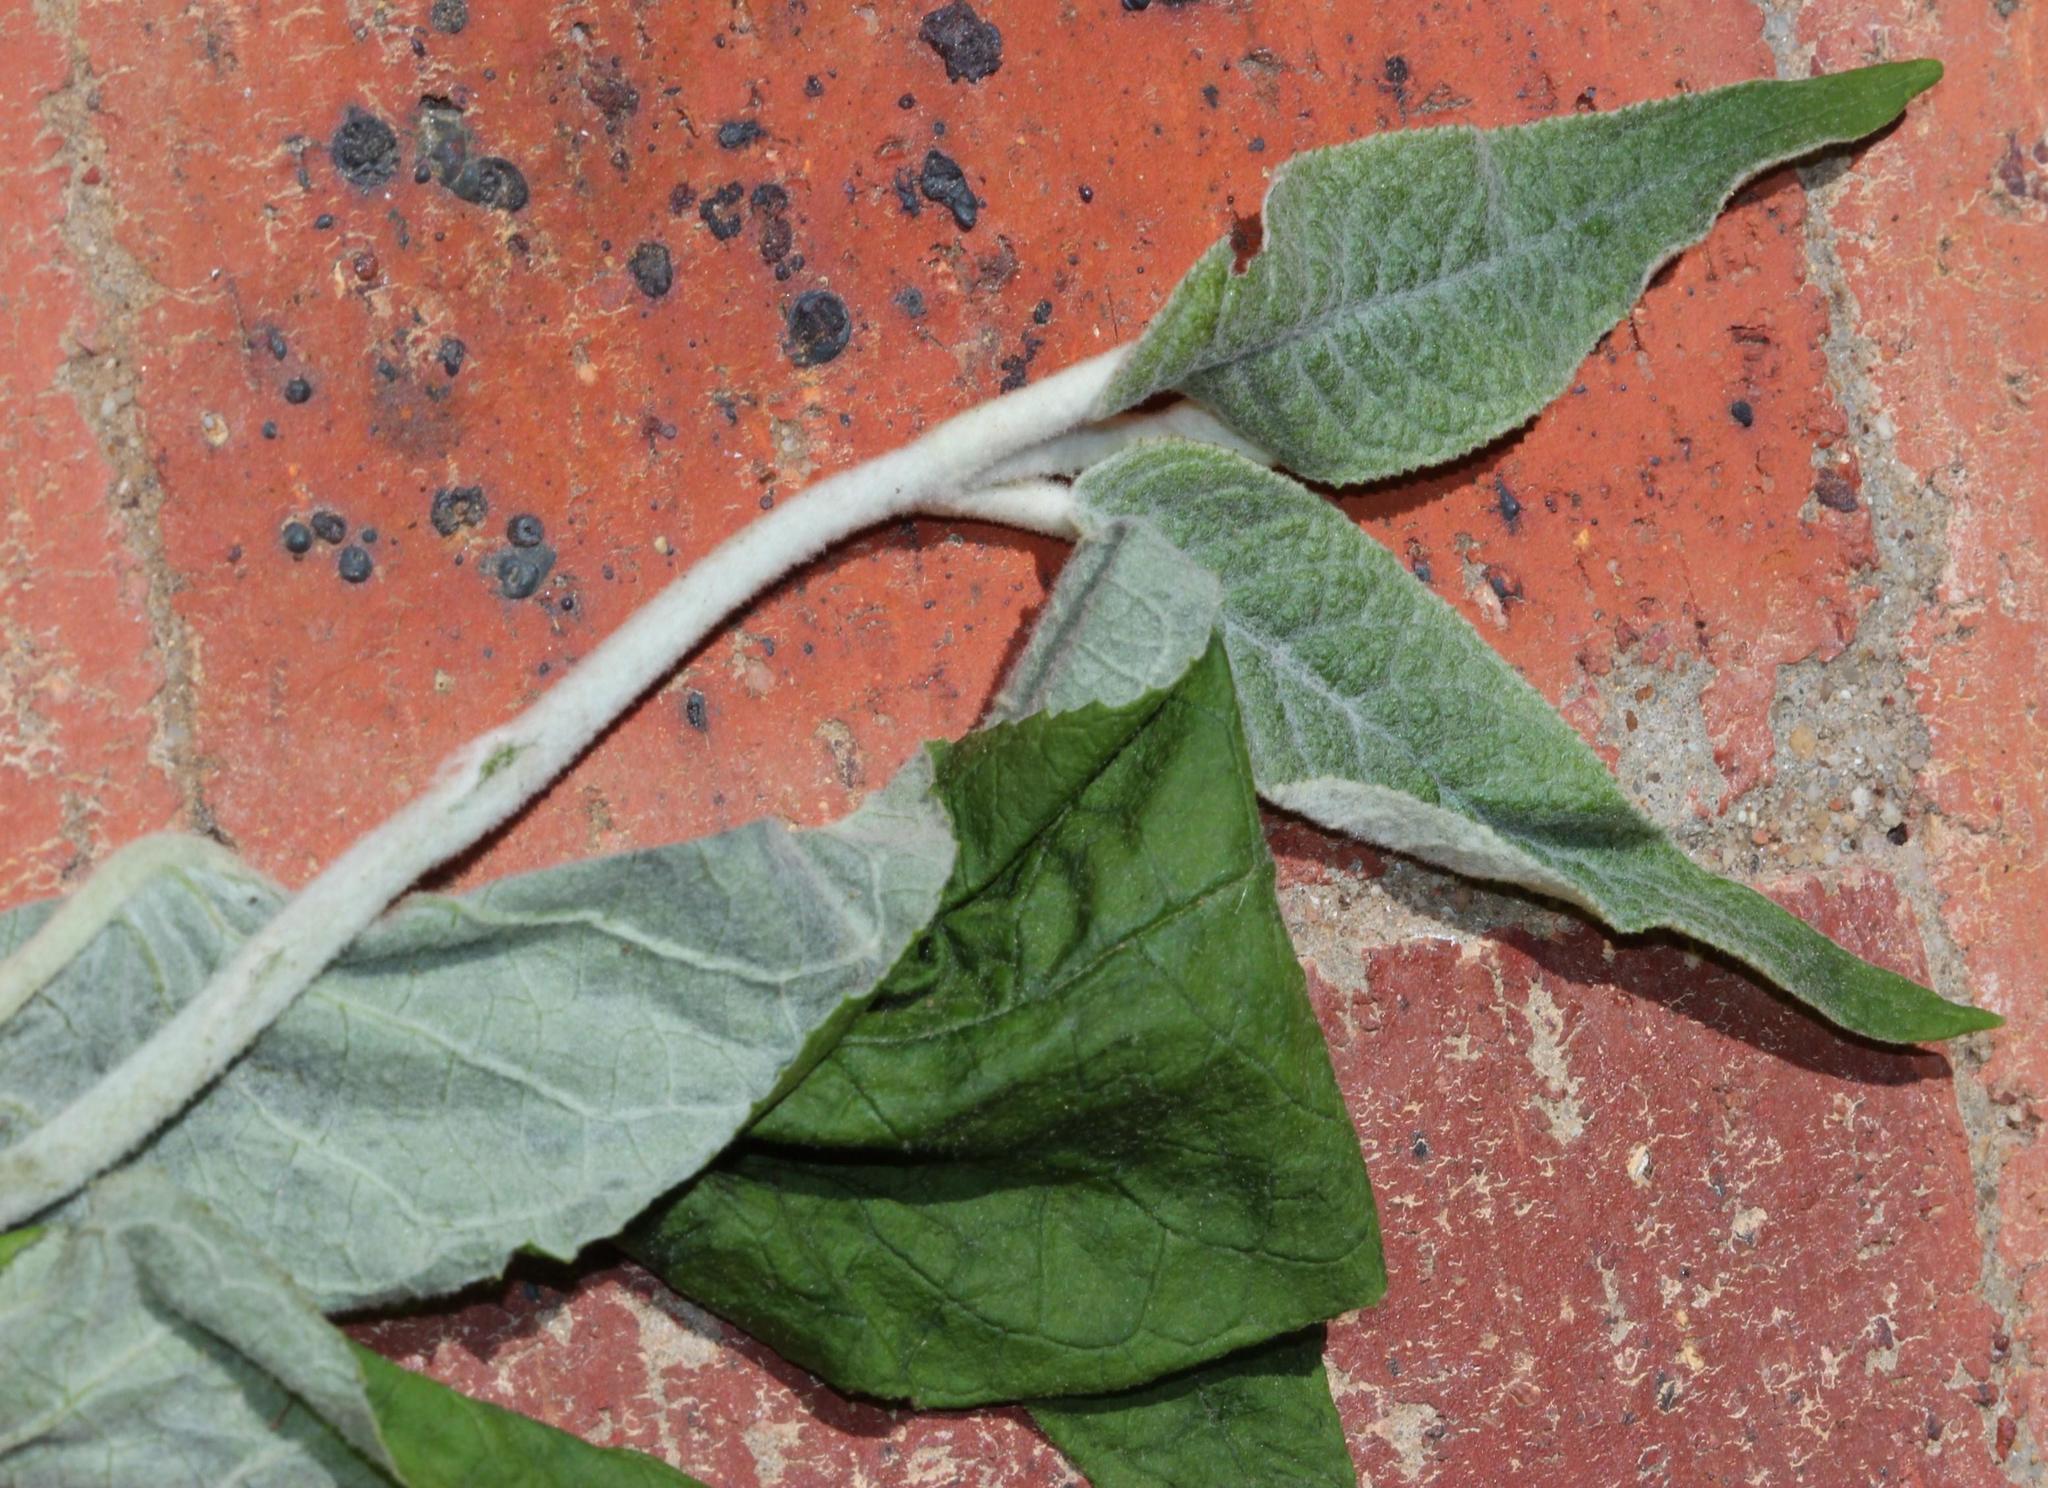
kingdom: Plantae
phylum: Tracheophyta
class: Magnoliopsida
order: Lamiales
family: Scrophulariaceae
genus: Buddleja
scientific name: Buddleja madagascariensis
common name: Smokebush
